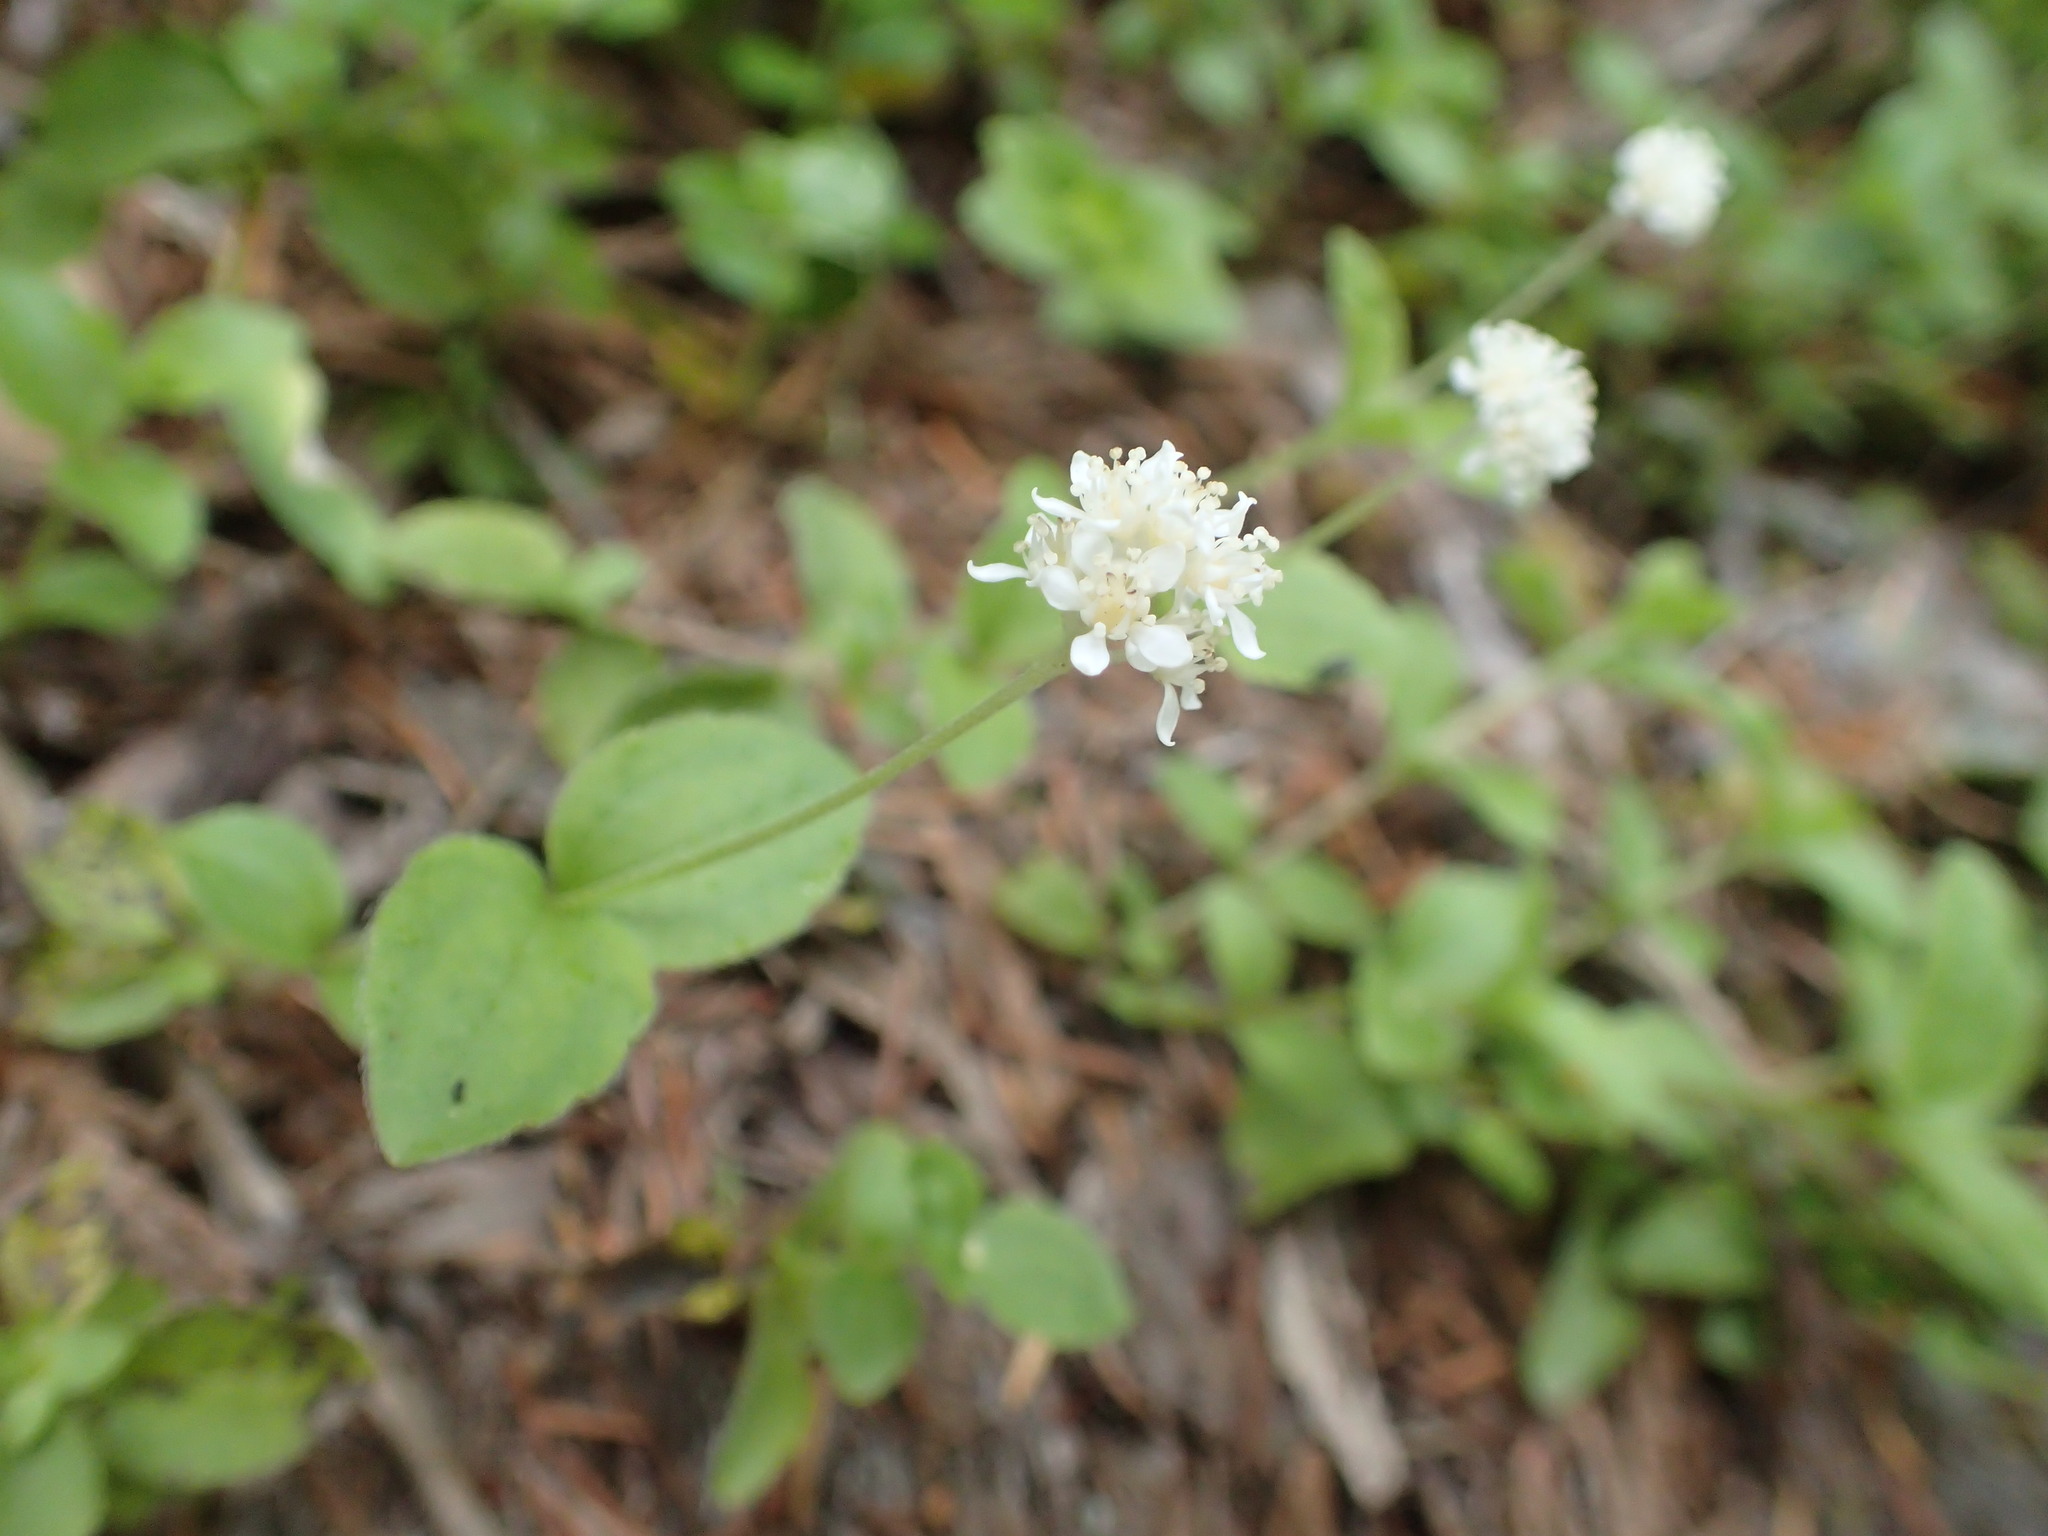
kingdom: Plantae
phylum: Tracheophyta
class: Magnoliopsida
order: Cornales
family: Hydrangeaceae
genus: Whipplea
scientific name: Whipplea modesta
